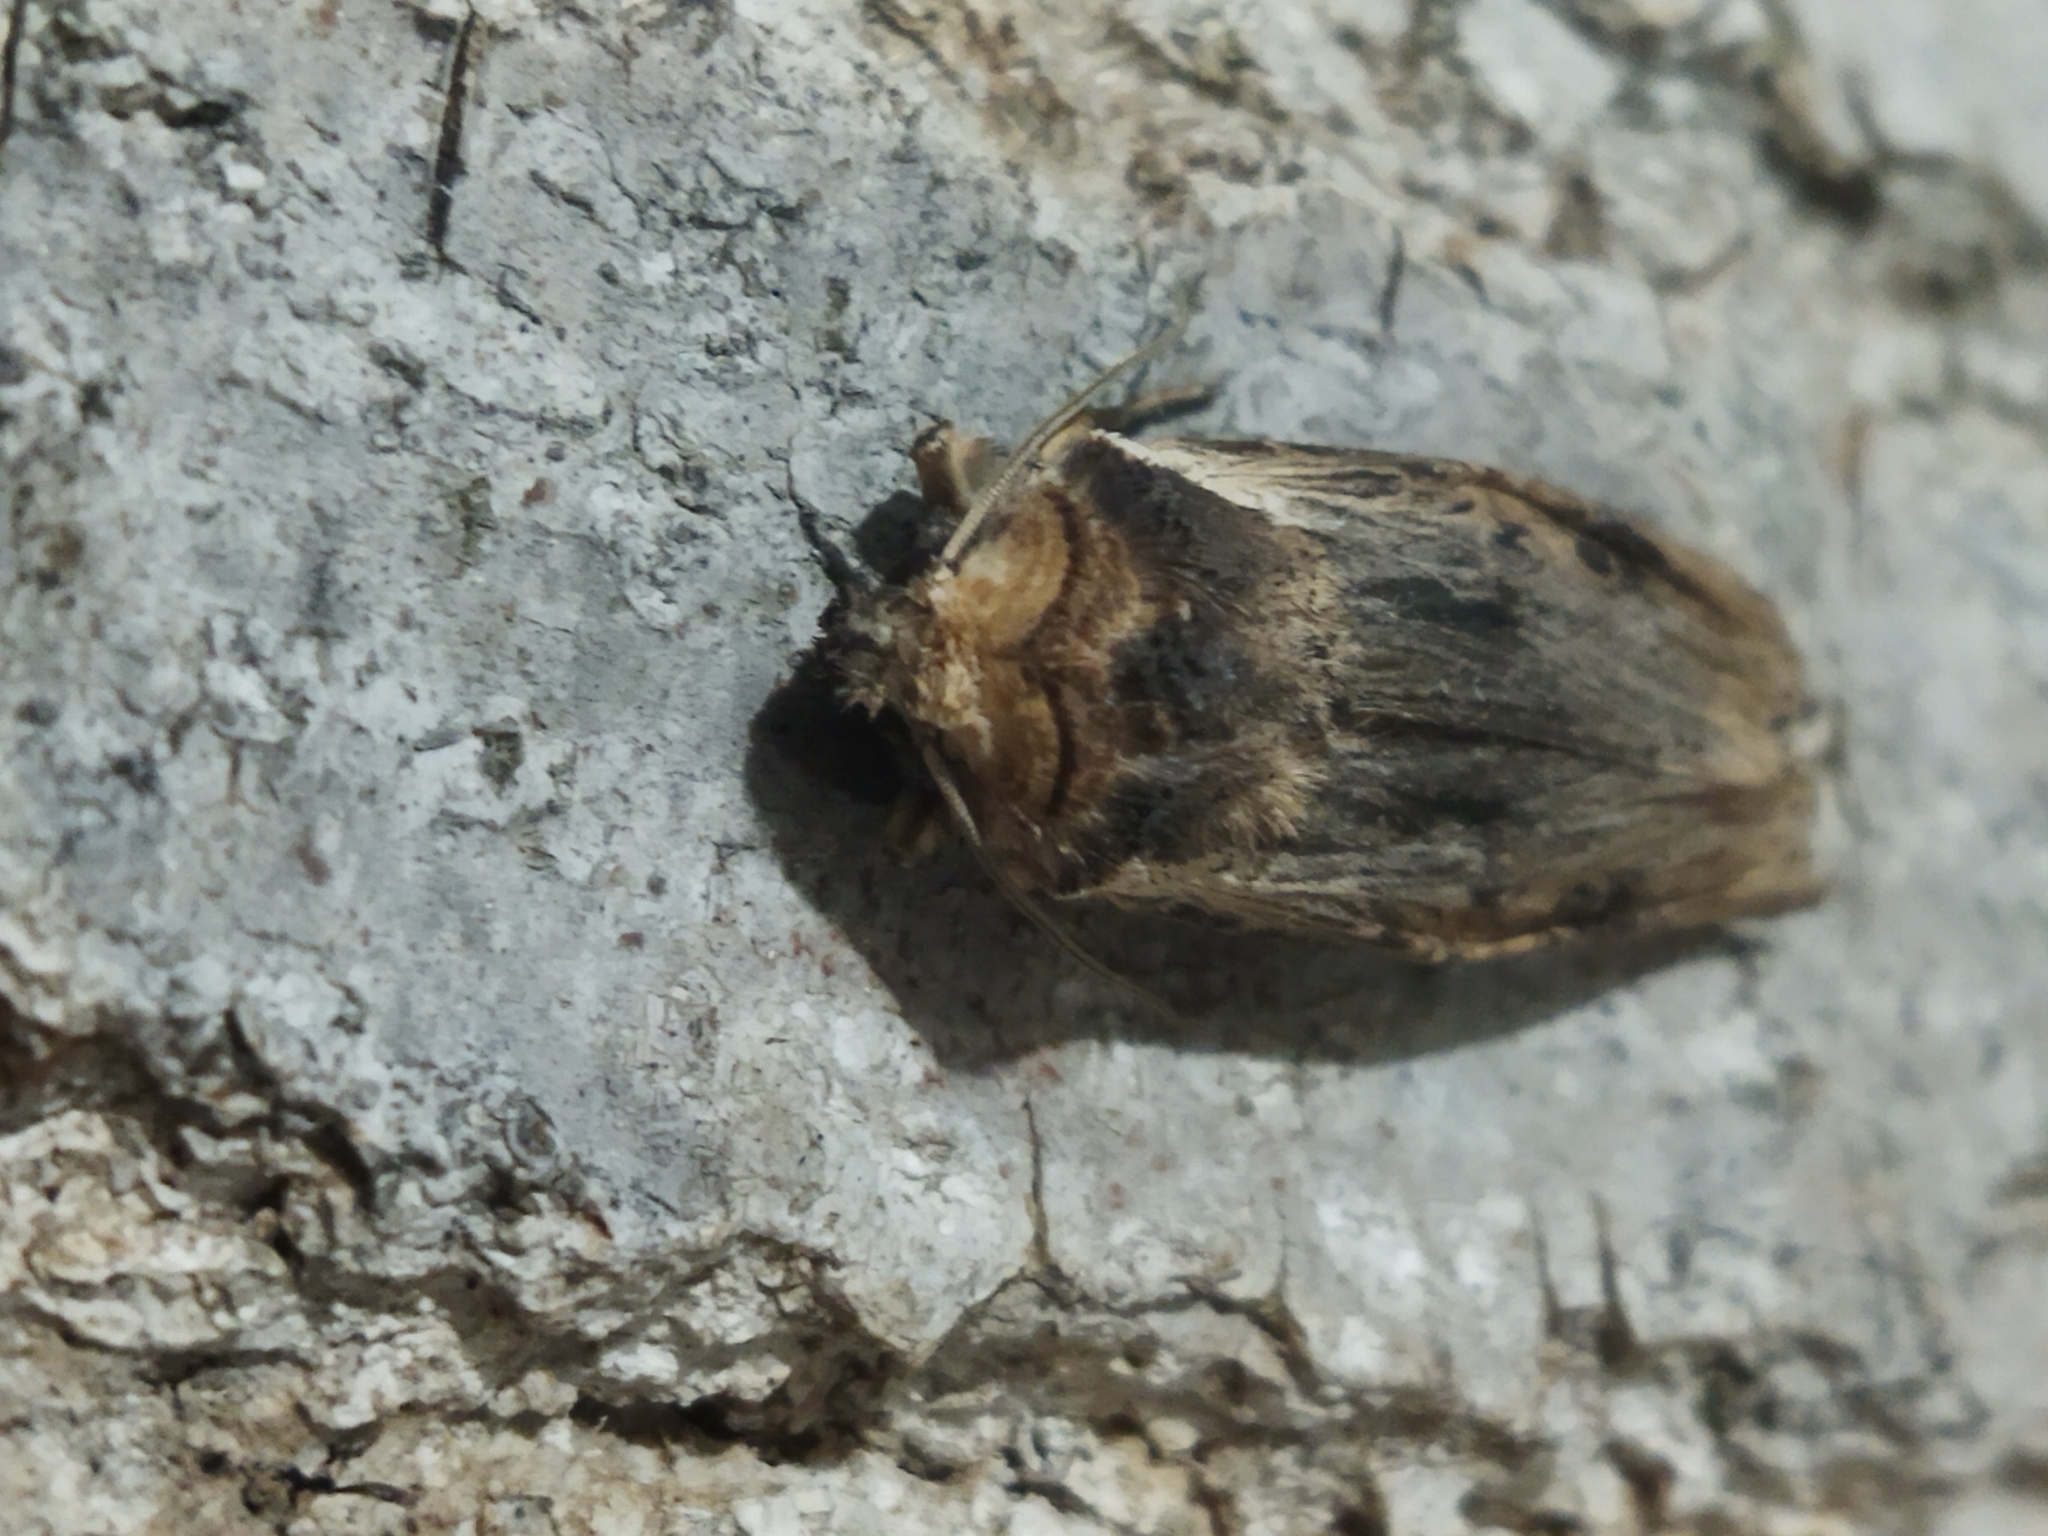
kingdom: Animalia
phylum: Arthropoda
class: Insecta
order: Lepidoptera
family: Noctuidae
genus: Xylena
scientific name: Xylena exsoleta
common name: Sword-grass
